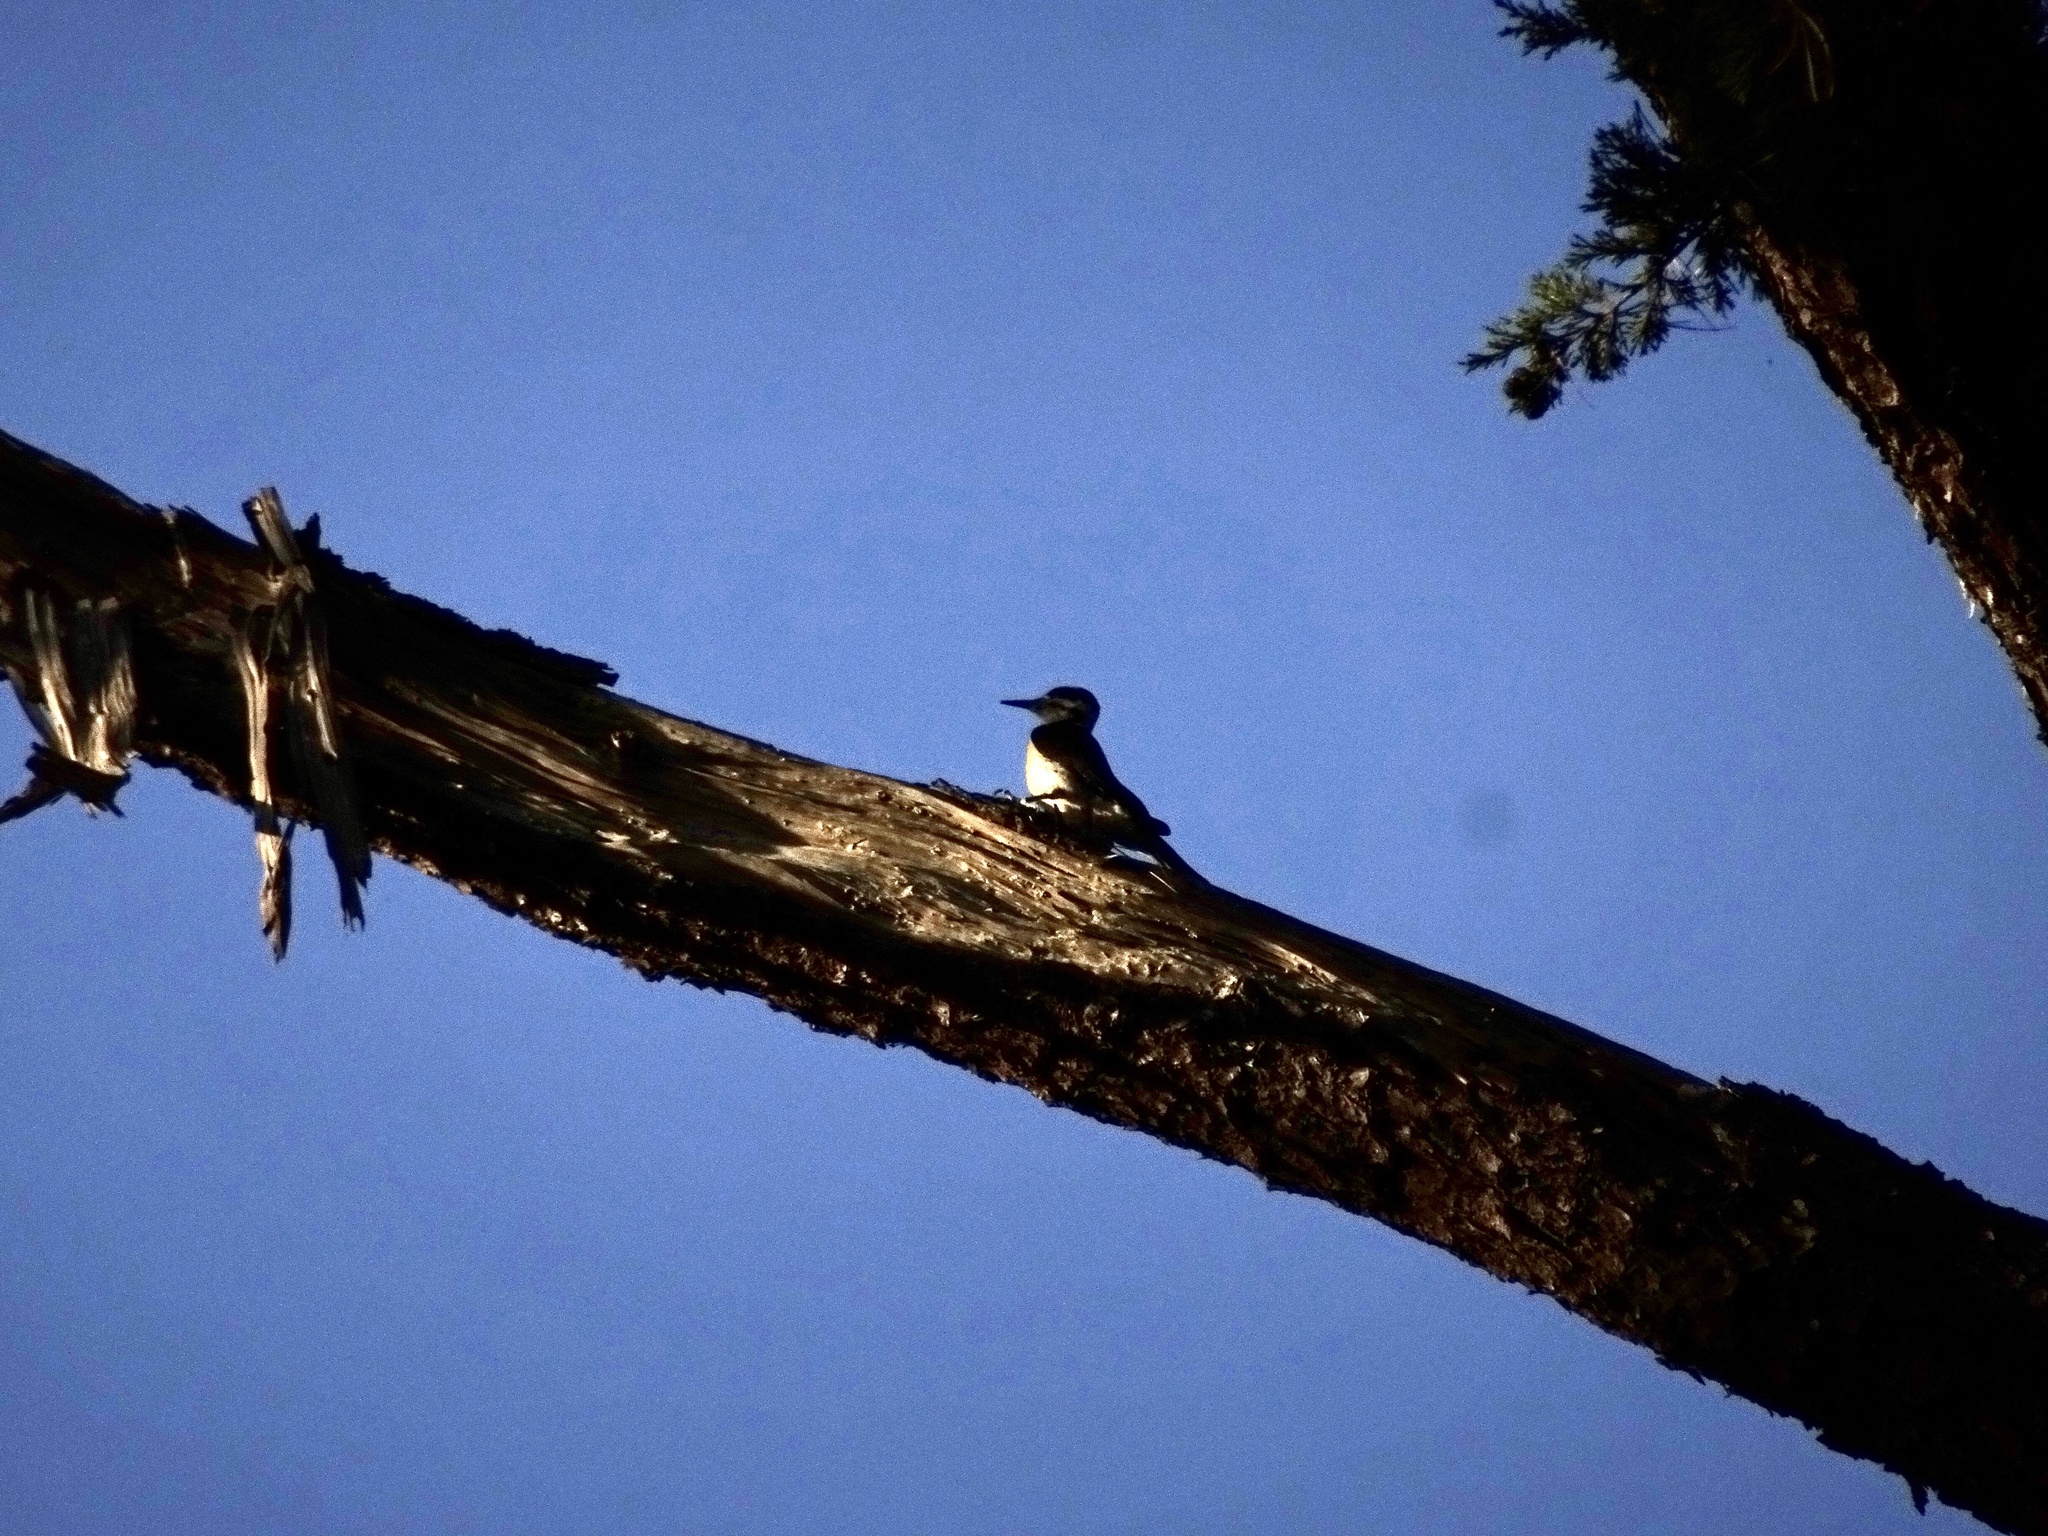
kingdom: Animalia
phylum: Chordata
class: Aves
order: Piciformes
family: Picidae
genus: Leuconotopicus
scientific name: Leuconotopicus villosus
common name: Hairy woodpecker
